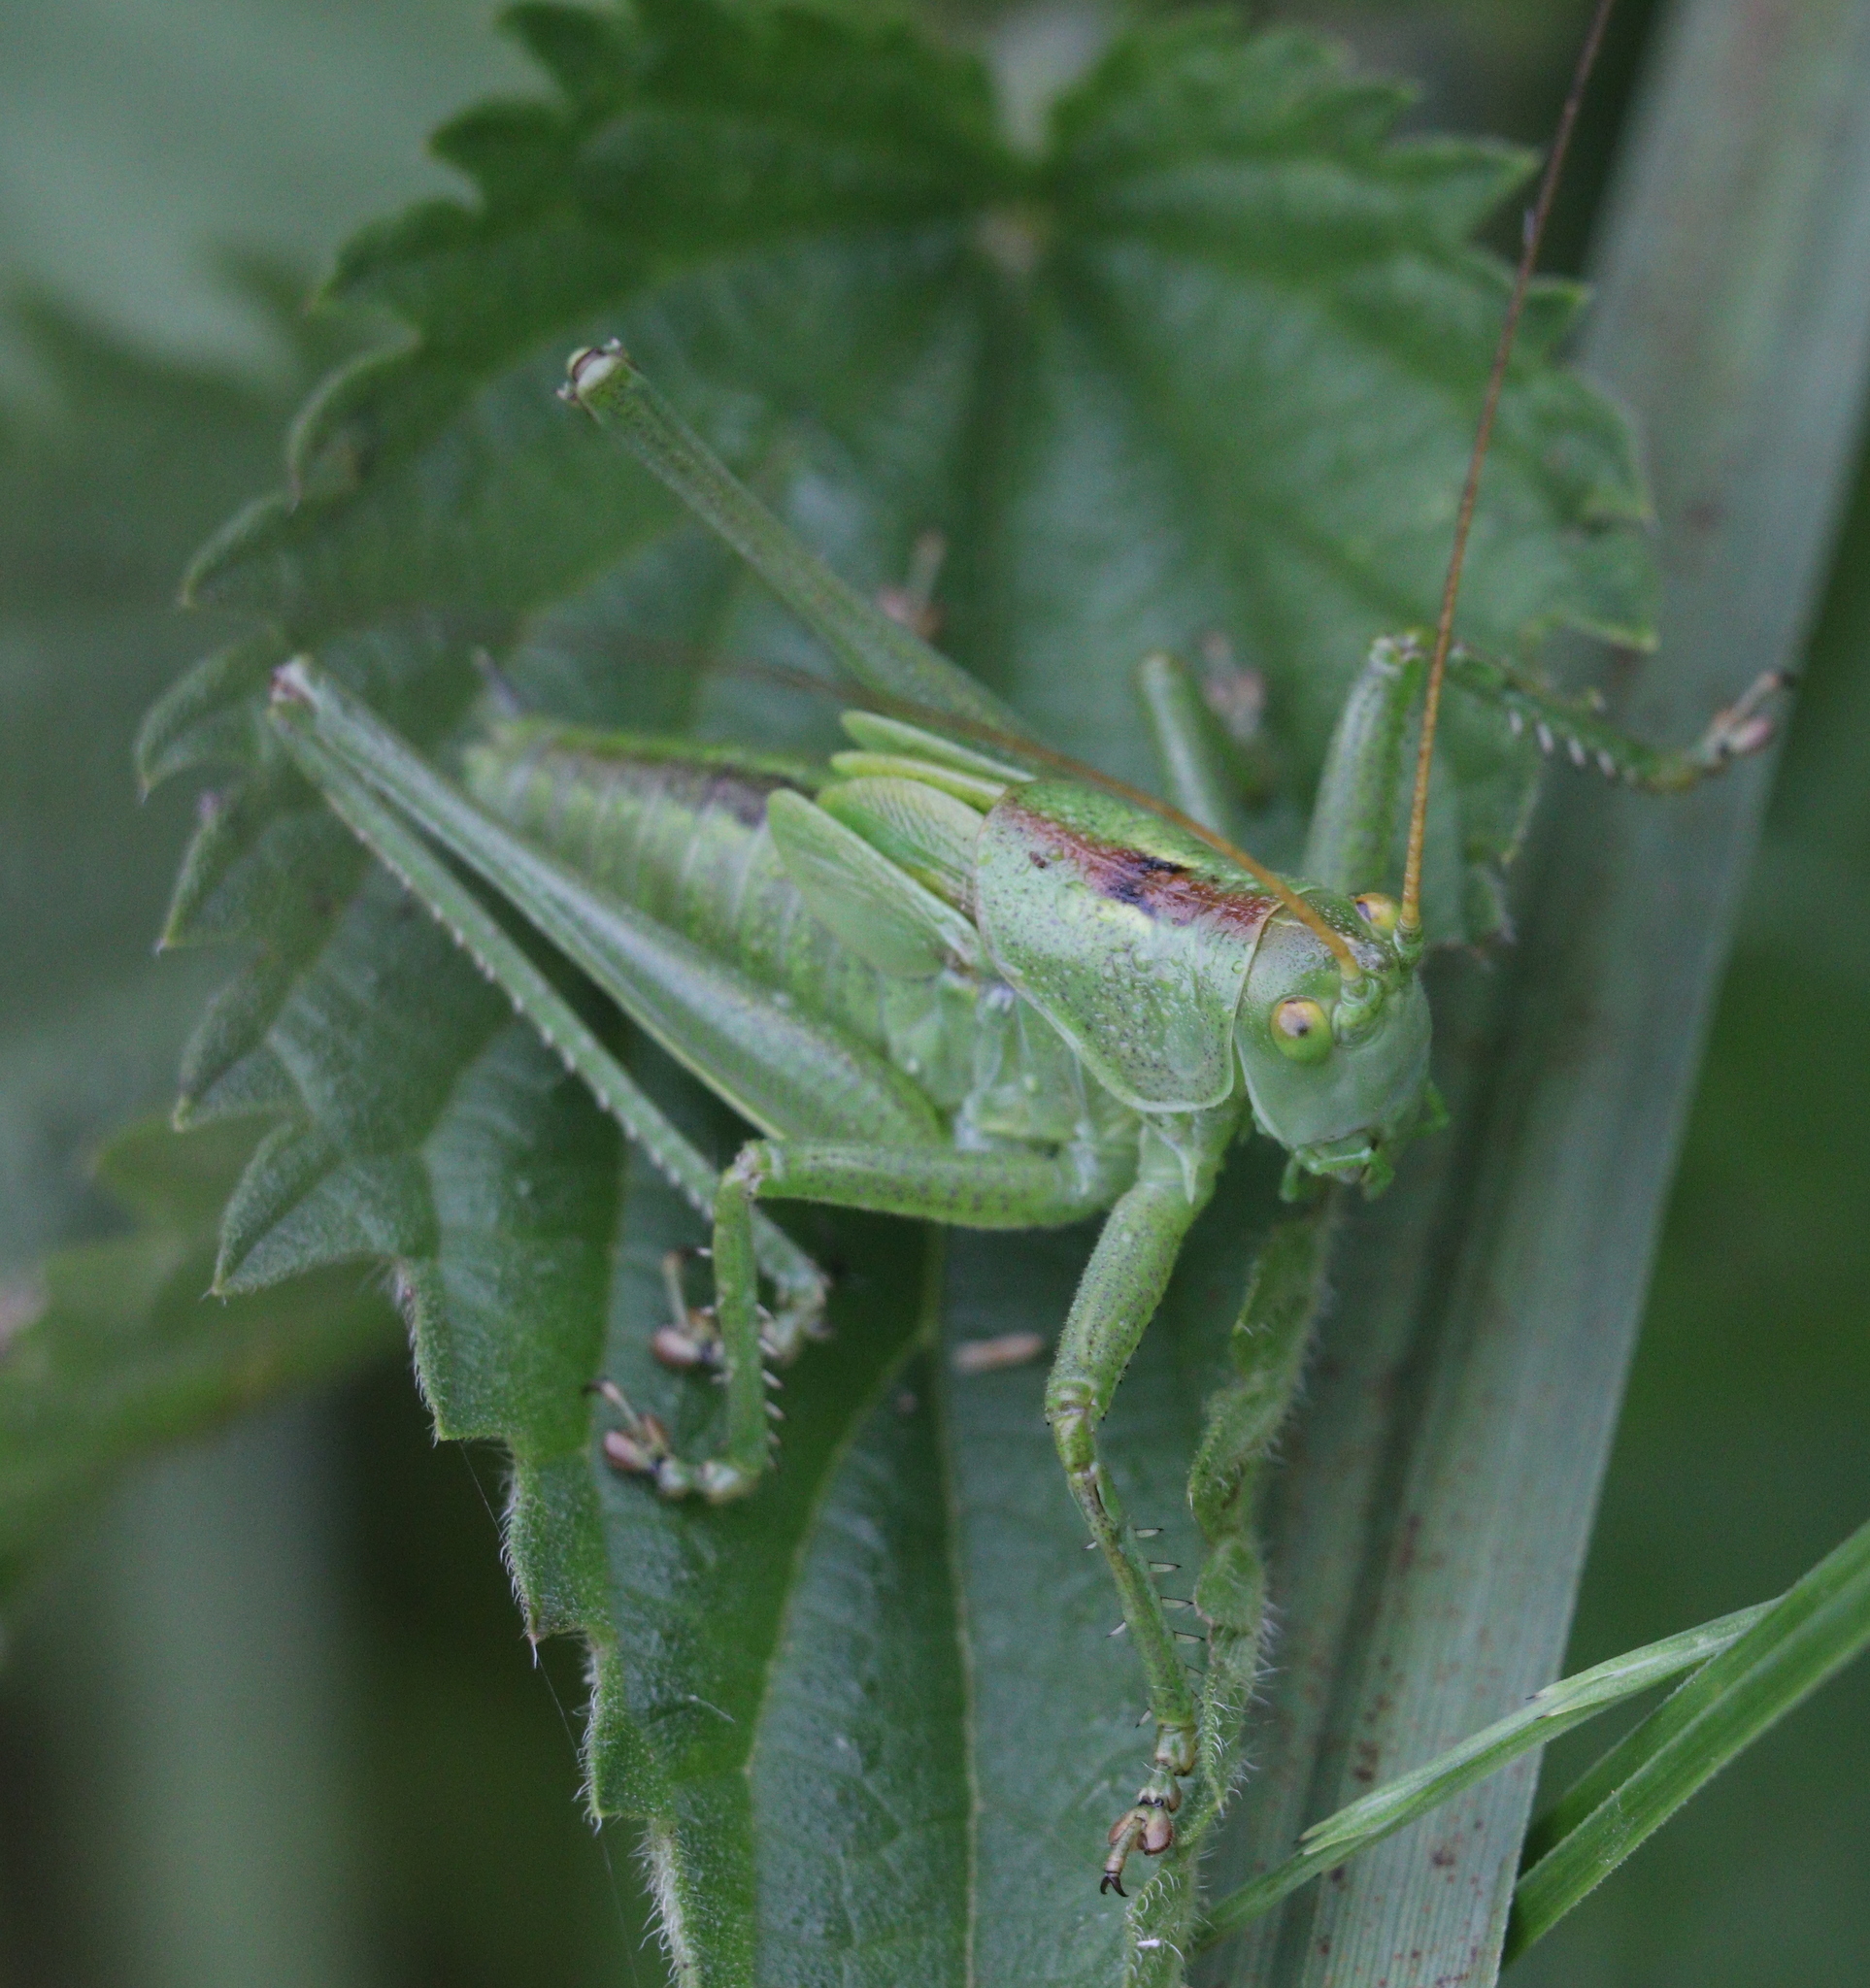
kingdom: Animalia
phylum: Arthropoda
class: Insecta
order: Orthoptera
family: Tettigoniidae
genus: Tettigonia
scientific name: Tettigonia cantans
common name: Upland green bush-cricket
